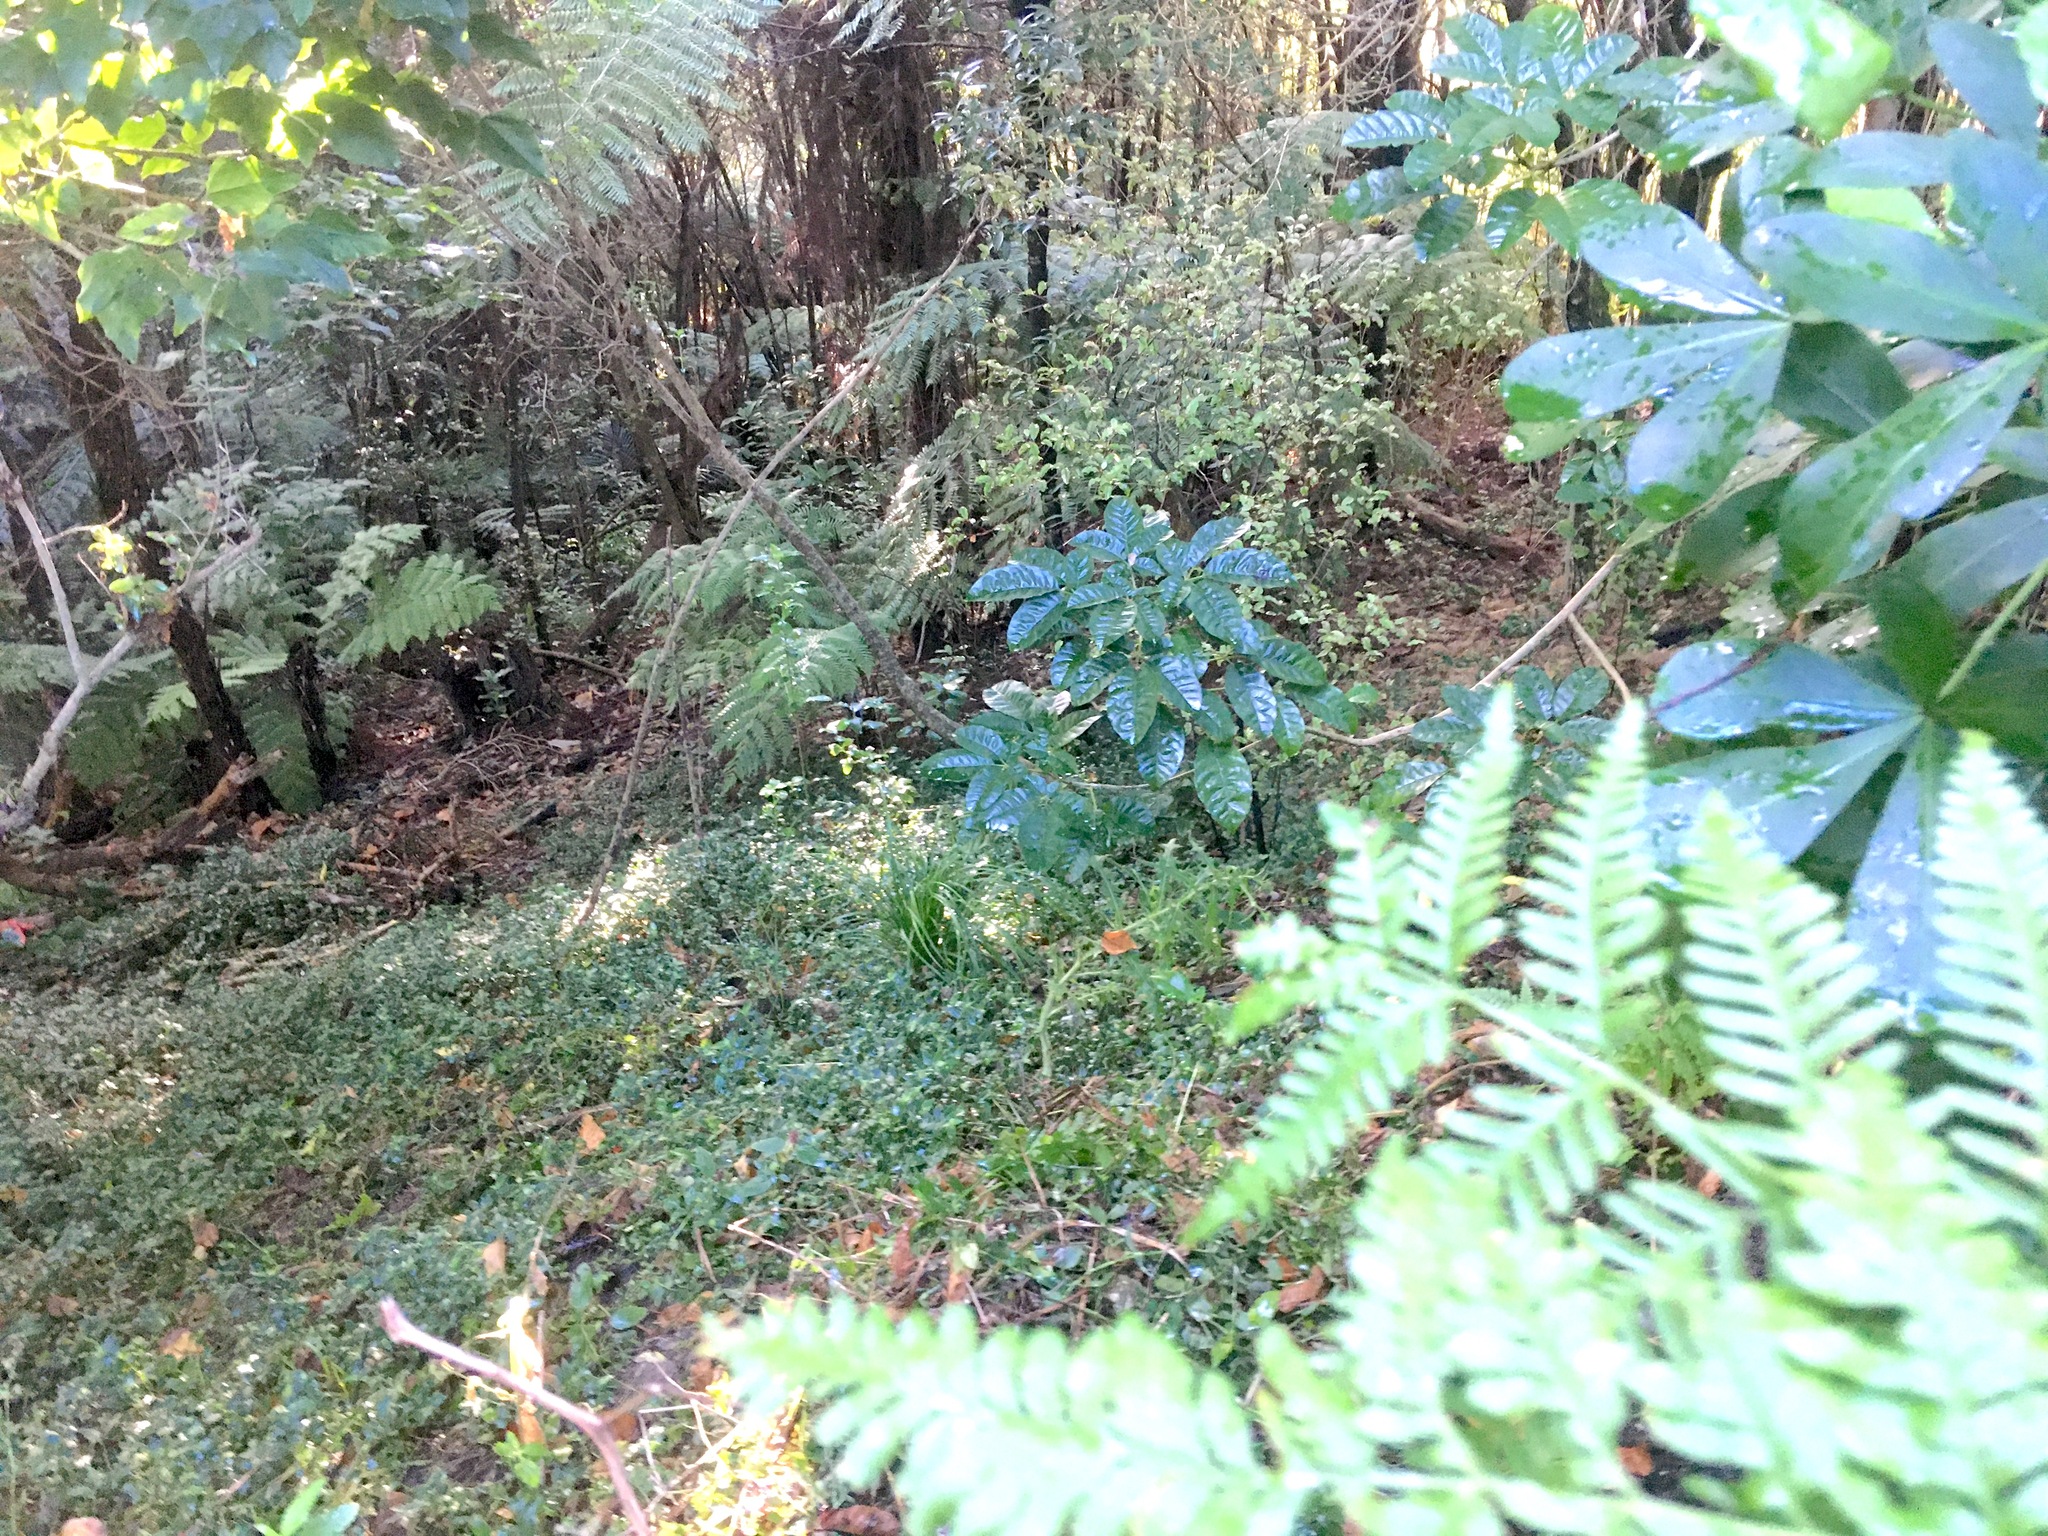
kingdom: Plantae
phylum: Tracheophyta
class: Magnoliopsida
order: Lamiales
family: Lamiaceae
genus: Vitex
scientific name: Vitex lucens
